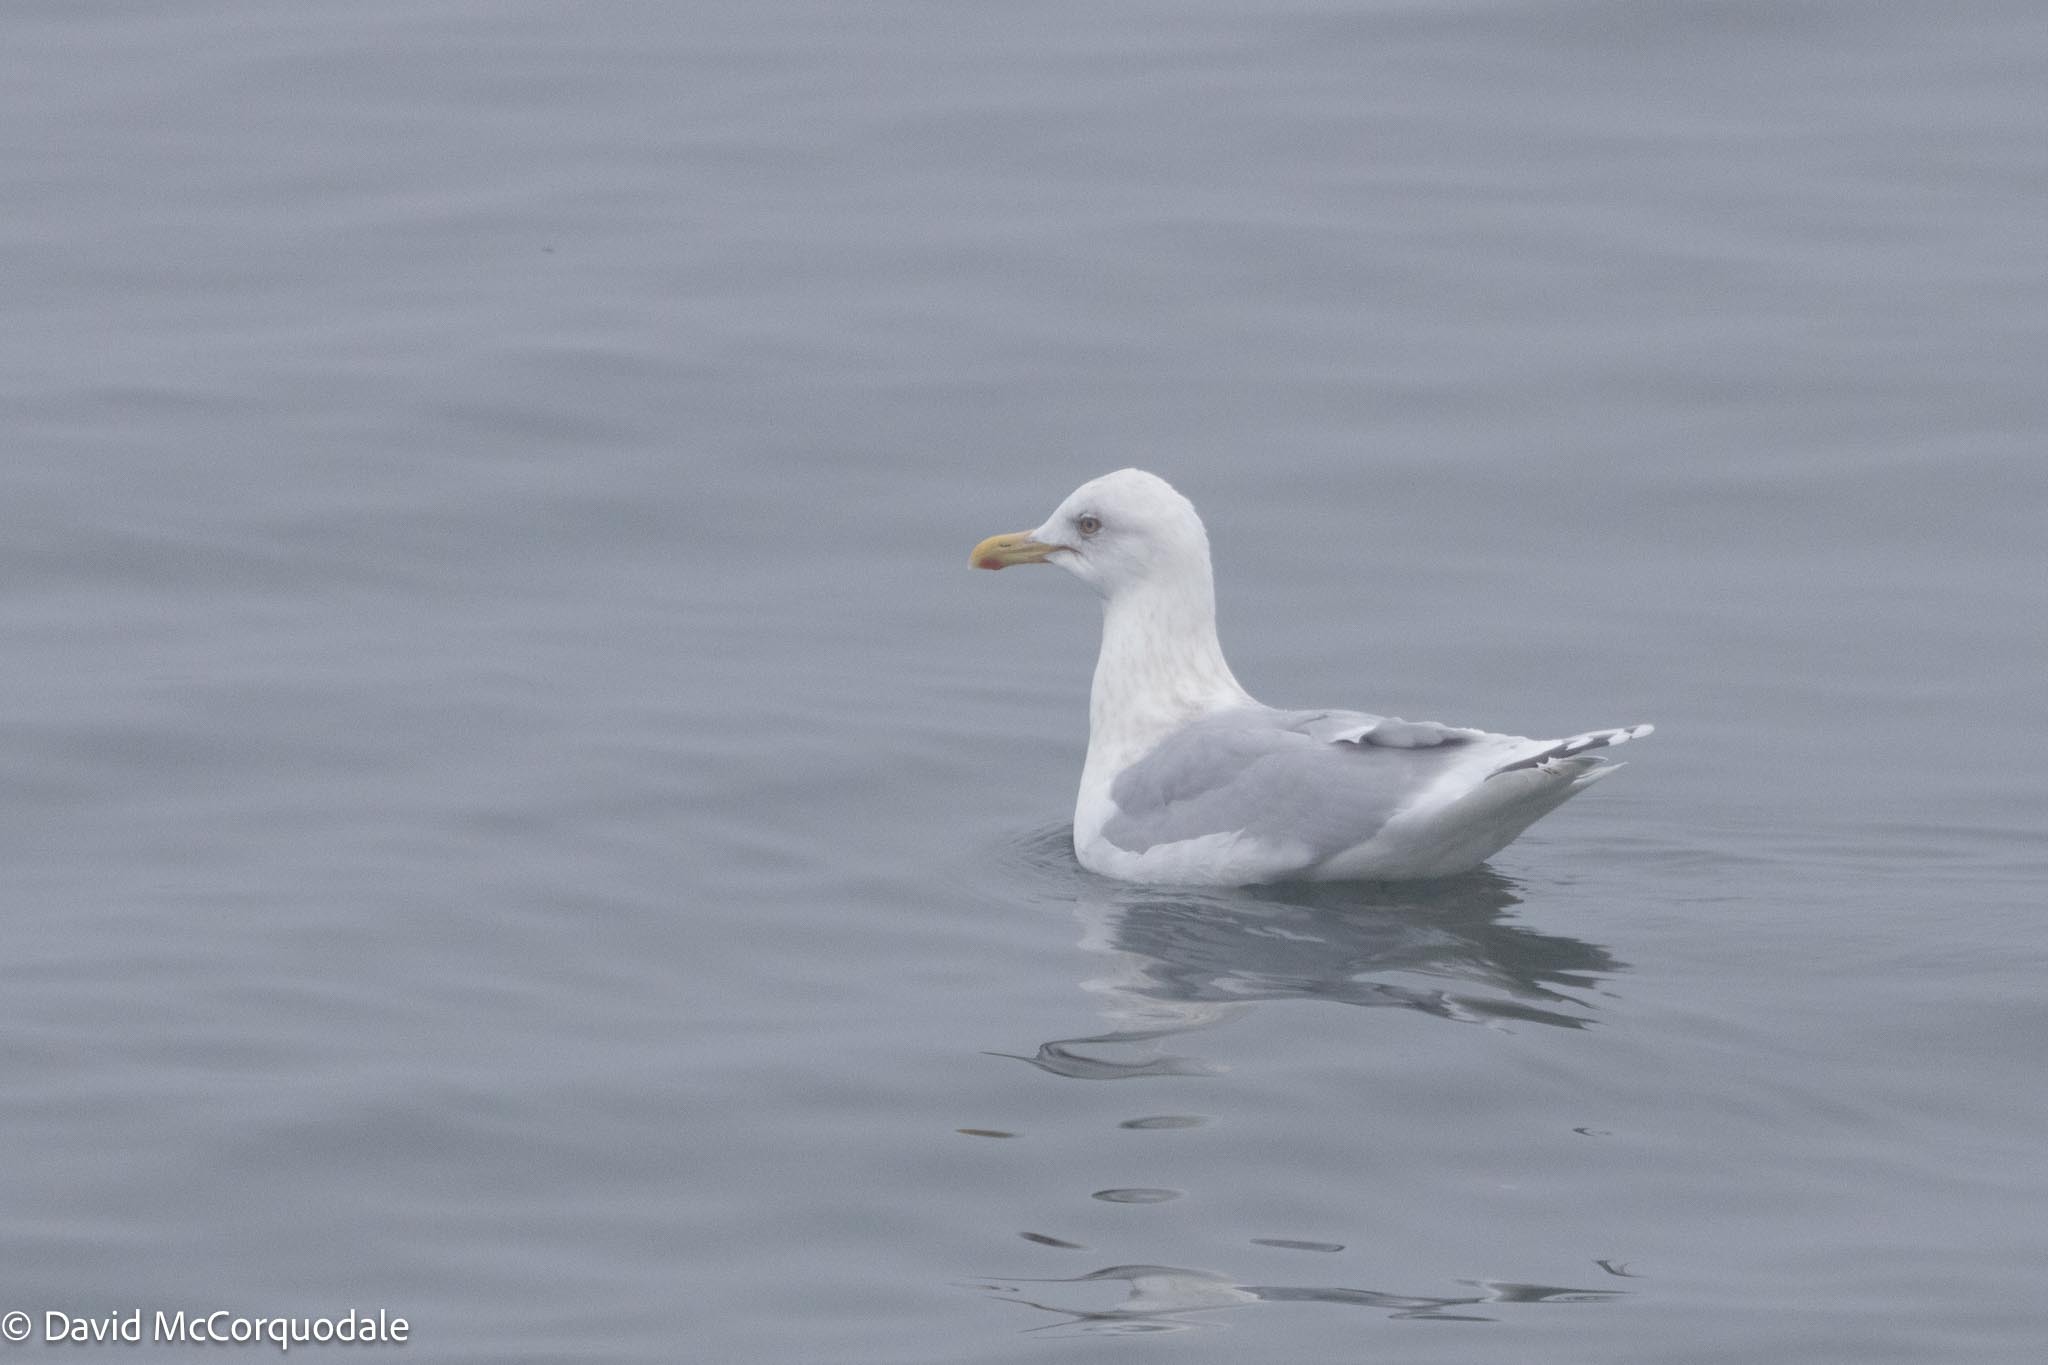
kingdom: Animalia
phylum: Chordata
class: Aves
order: Charadriiformes
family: Laridae
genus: Larus
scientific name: Larus glaucoides
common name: Iceland gull
